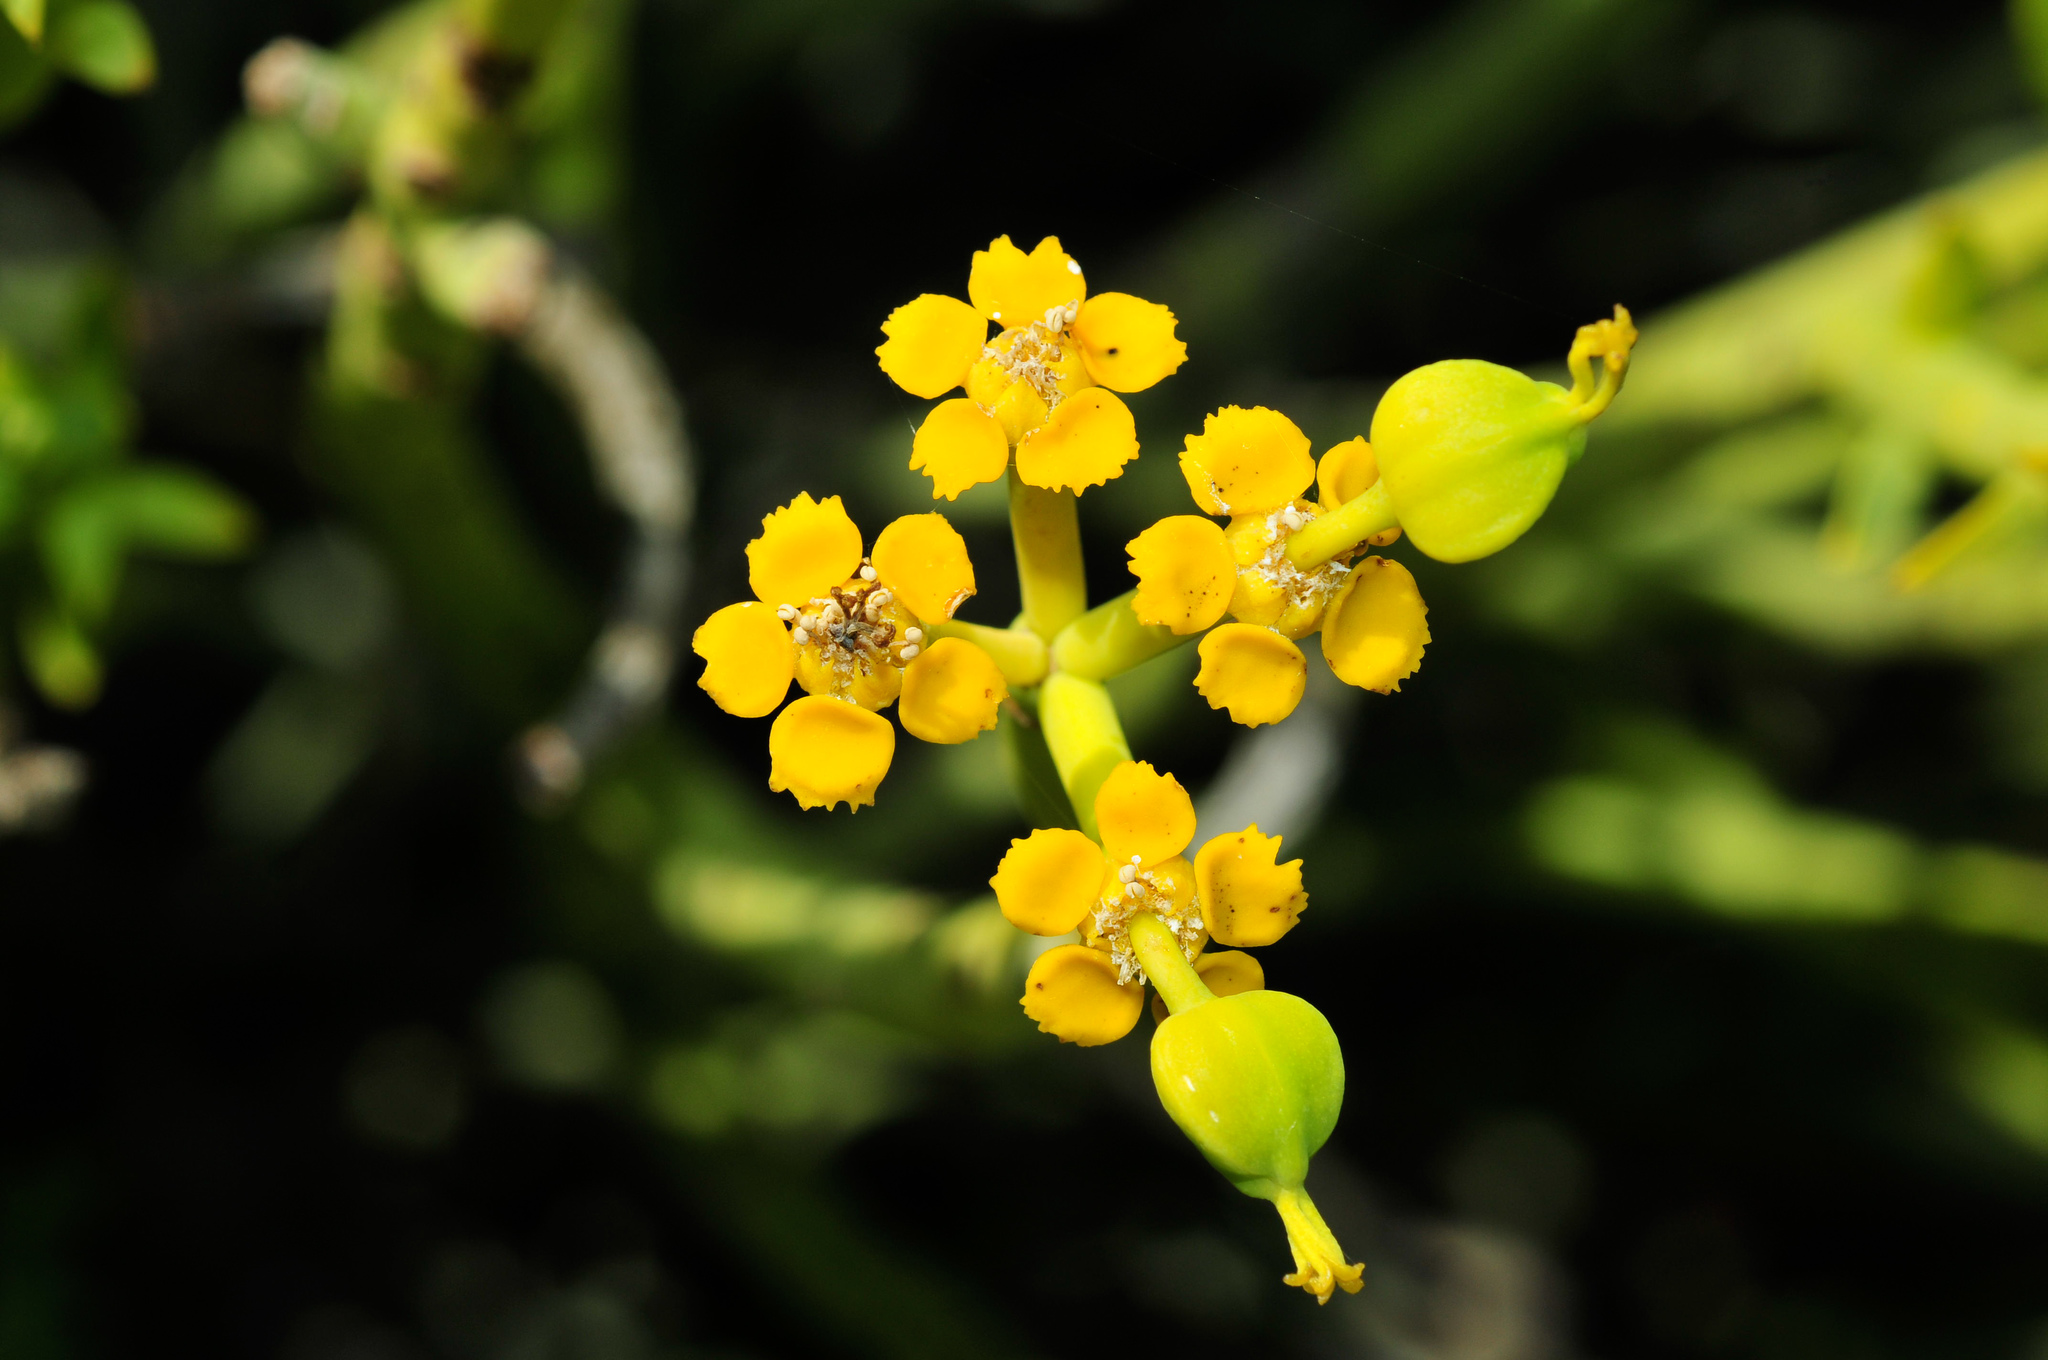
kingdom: Plantae
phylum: Tracheophyta
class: Magnoliopsida
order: Malpighiales
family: Euphorbiaceae
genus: Euphorbia
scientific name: Euphorbia mauritanica
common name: Jackal's-food
